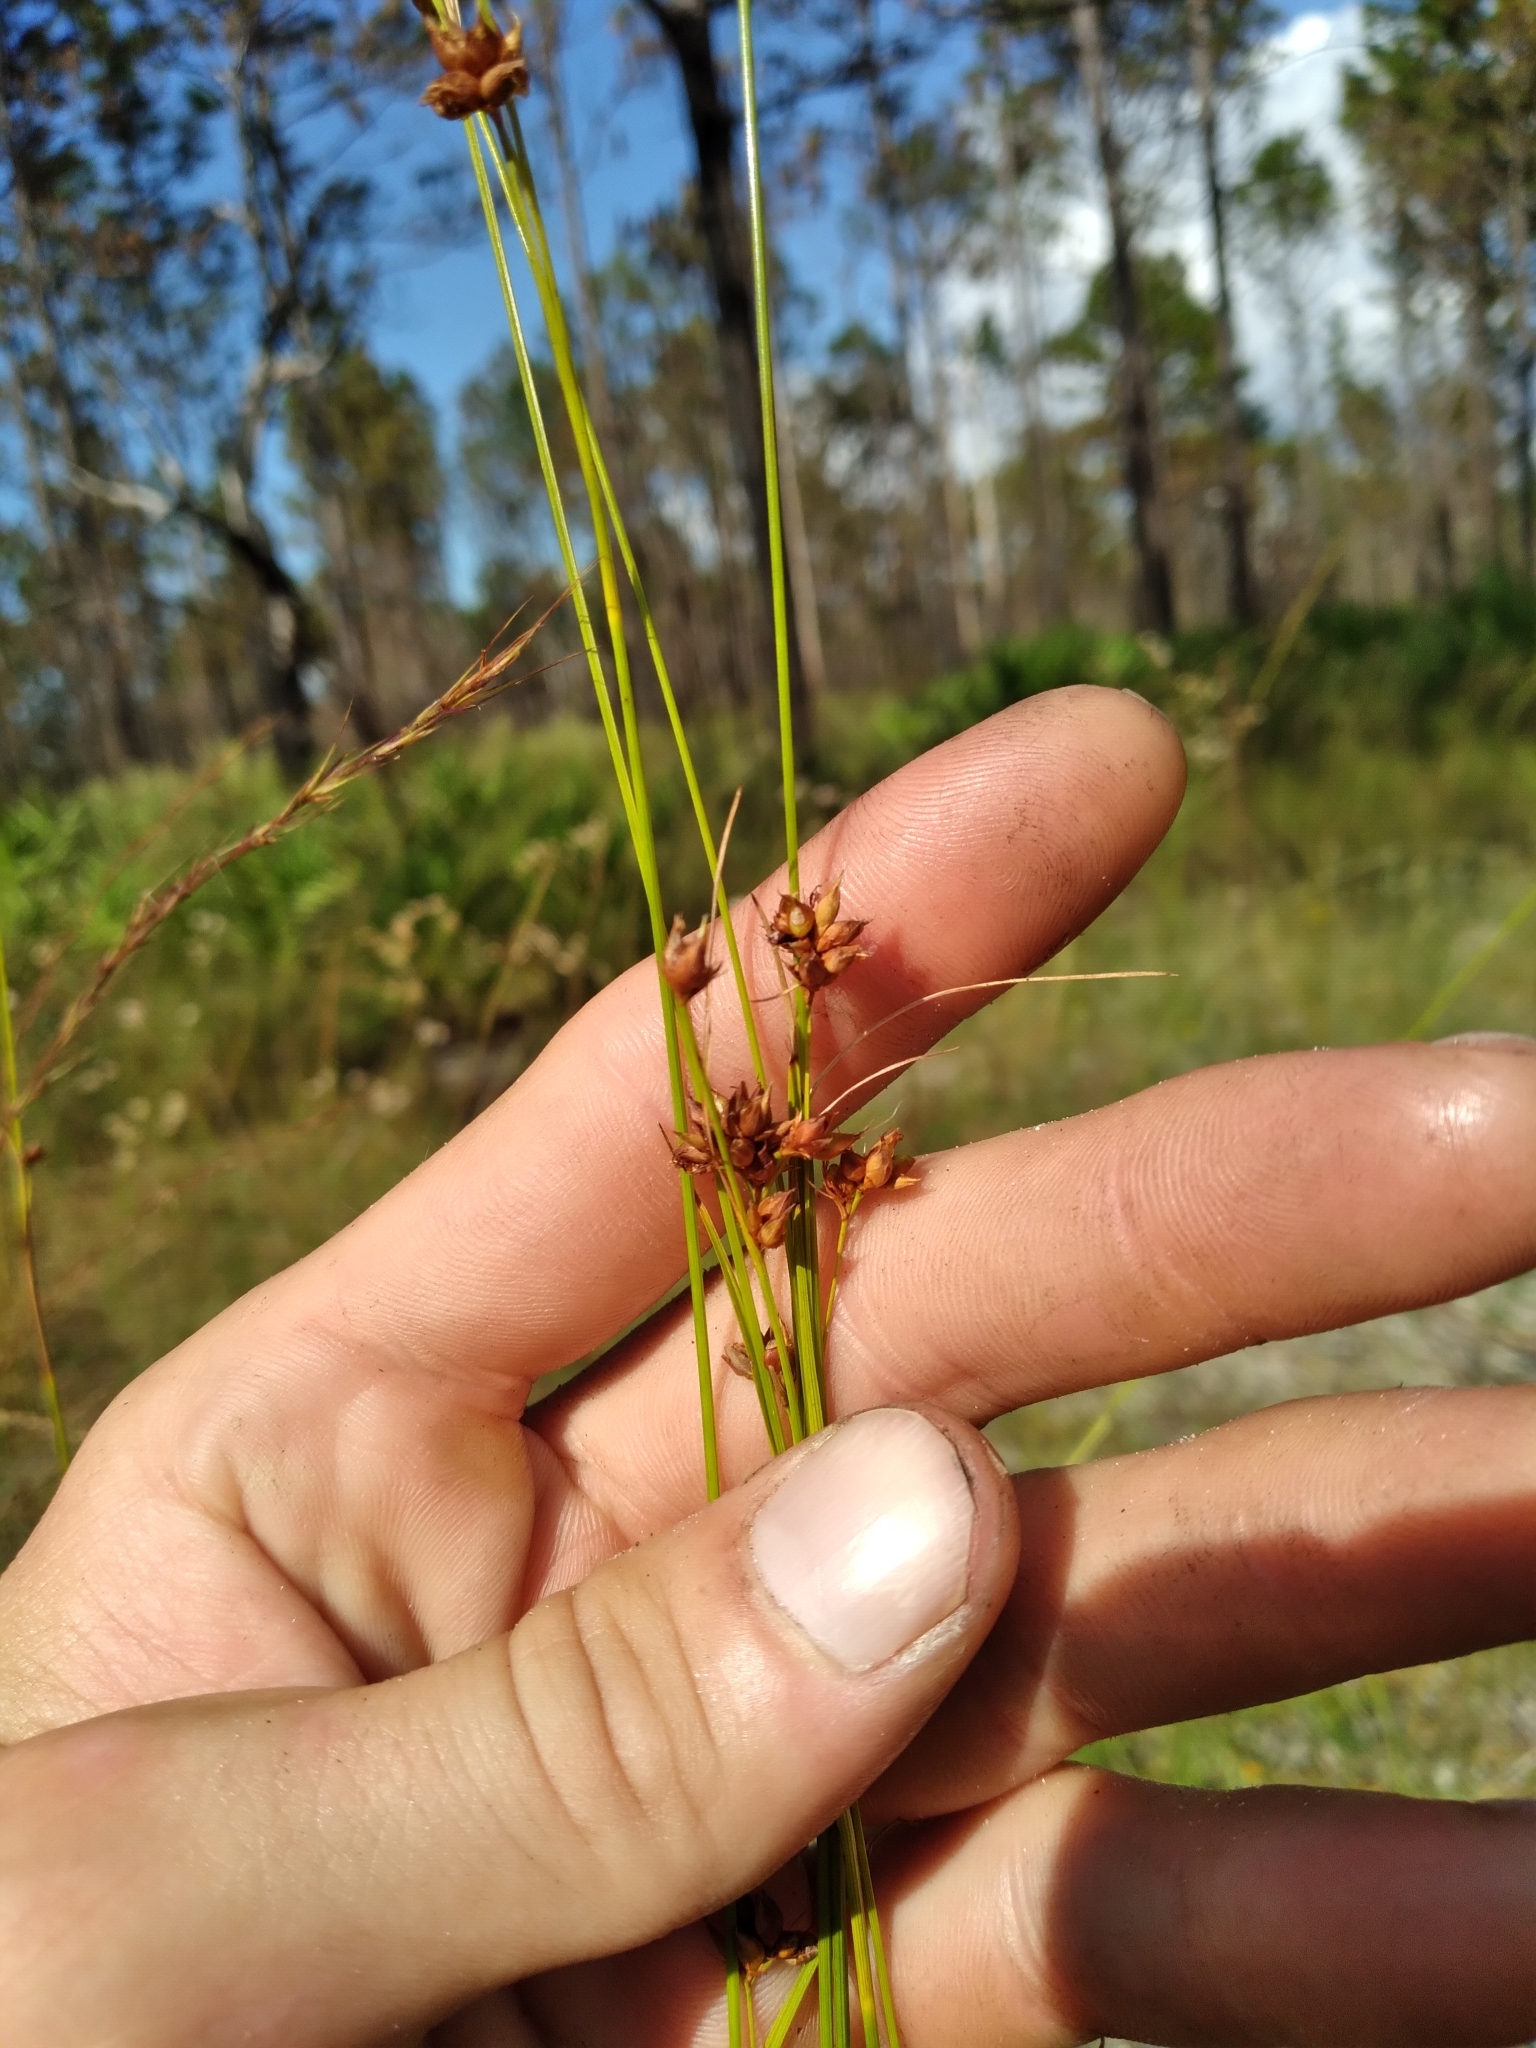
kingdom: Plantae
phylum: Tracheophyta
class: Liliopsida
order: Poales
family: Cyperaceae
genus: Rhynchospora
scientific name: Rhynchospora grayi
